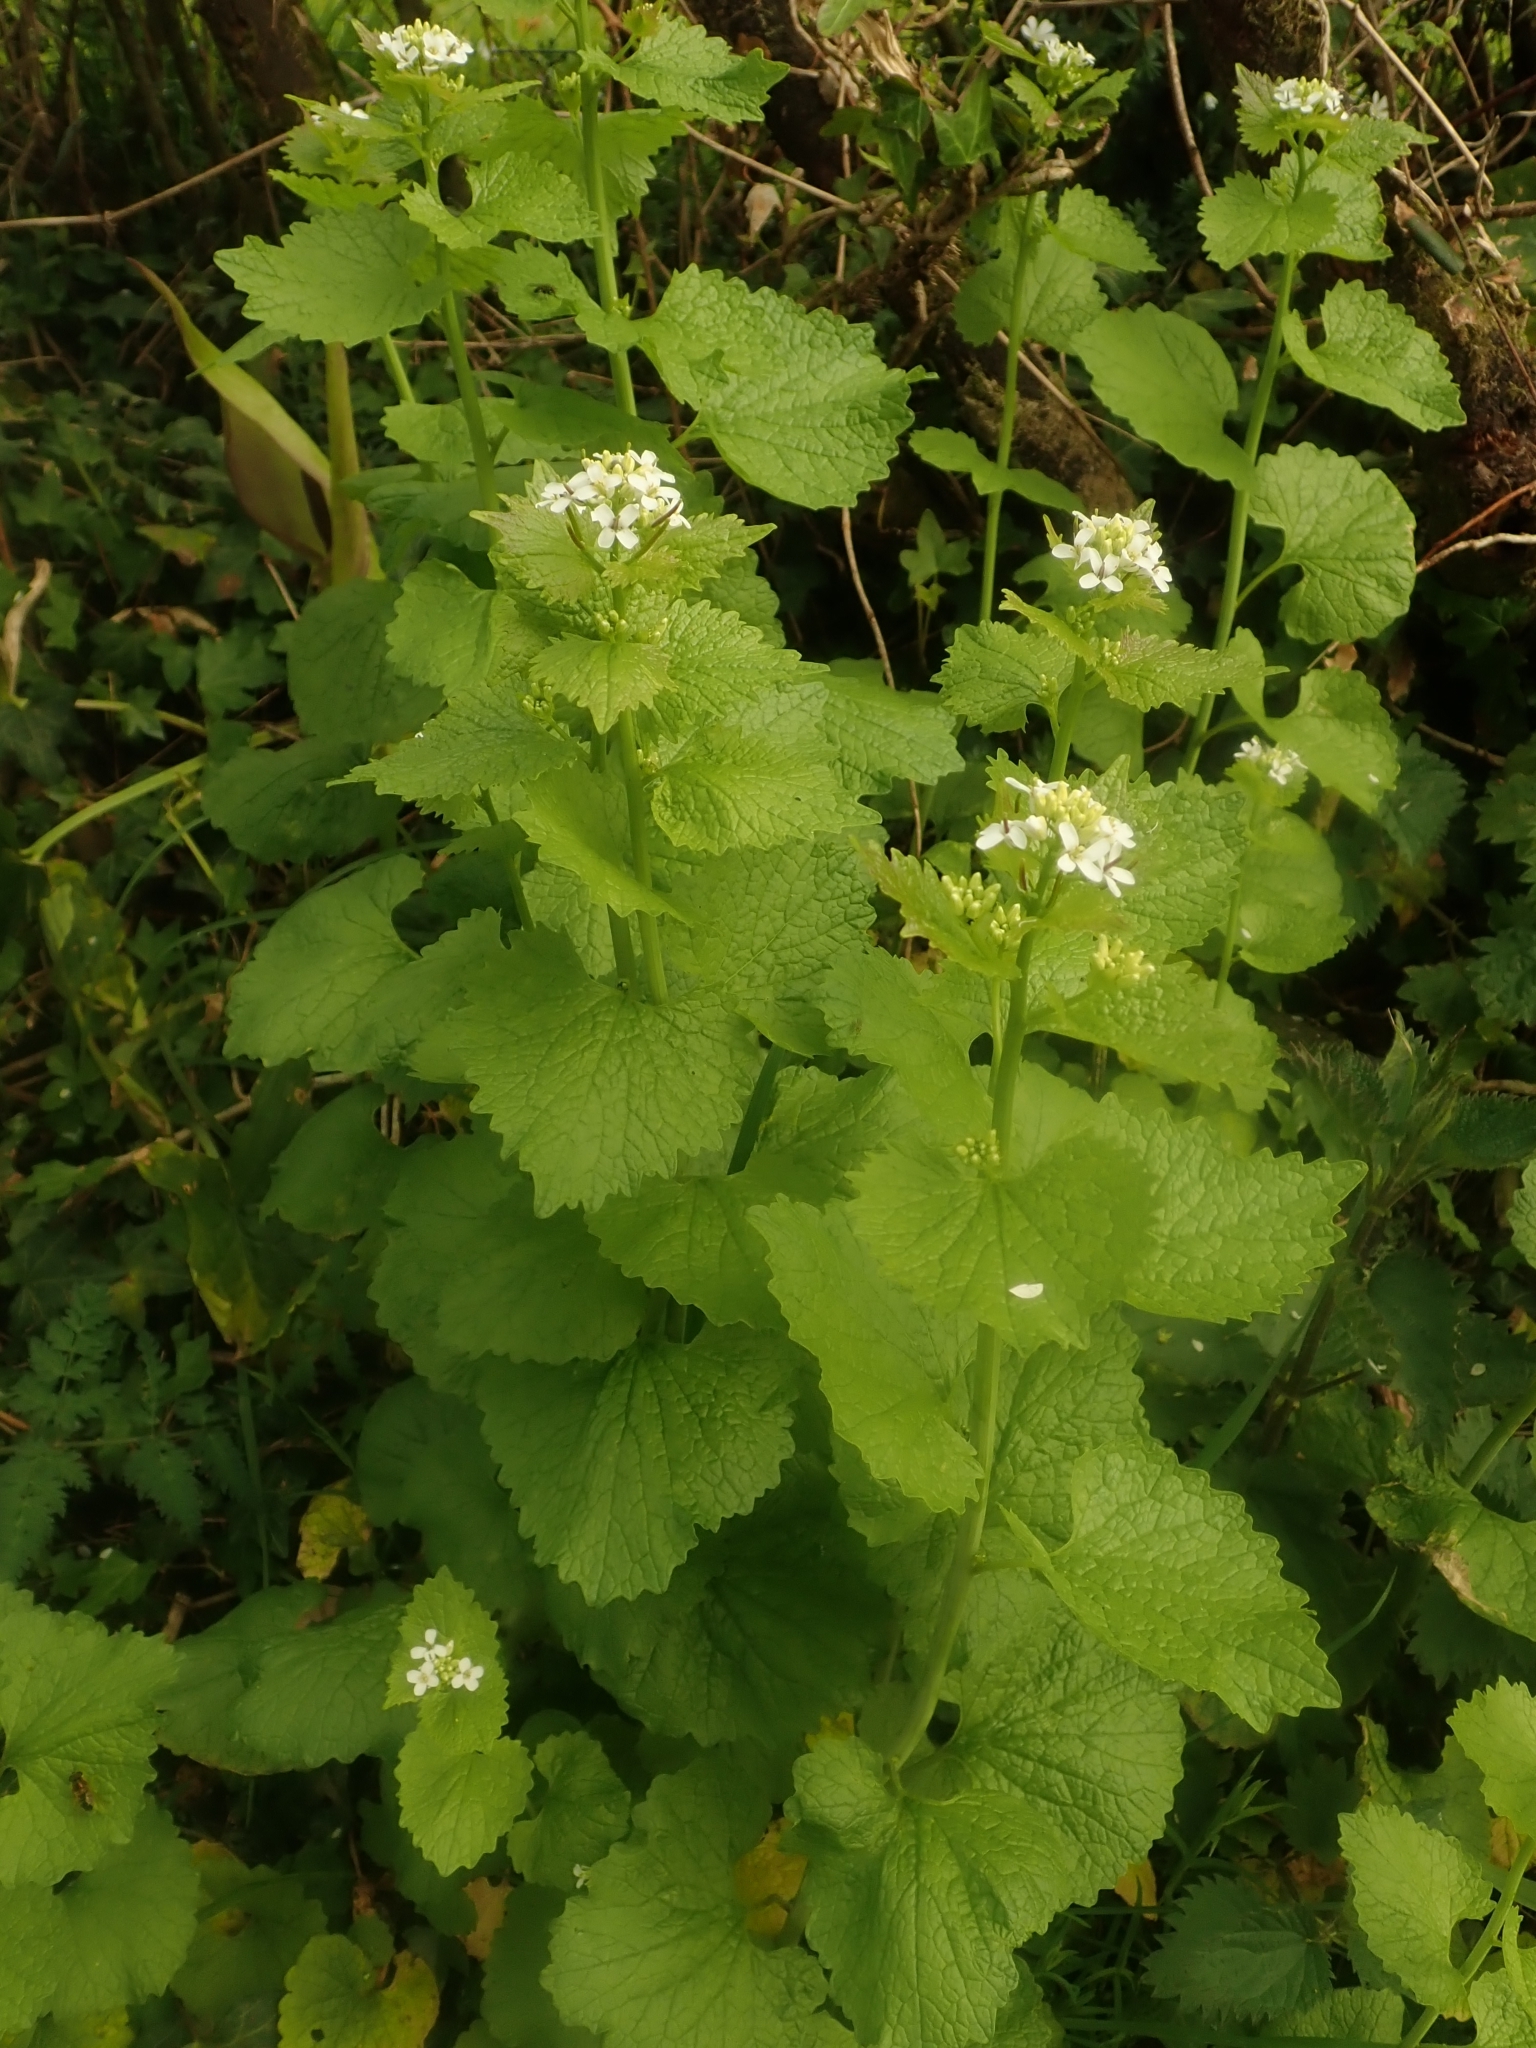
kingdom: Plantae
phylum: Tracheophyta
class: Magnoliopsida
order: Brassicales
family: Brassicaceae
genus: Alliaria
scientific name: Alliaria petiolata
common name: Garlic mustard
